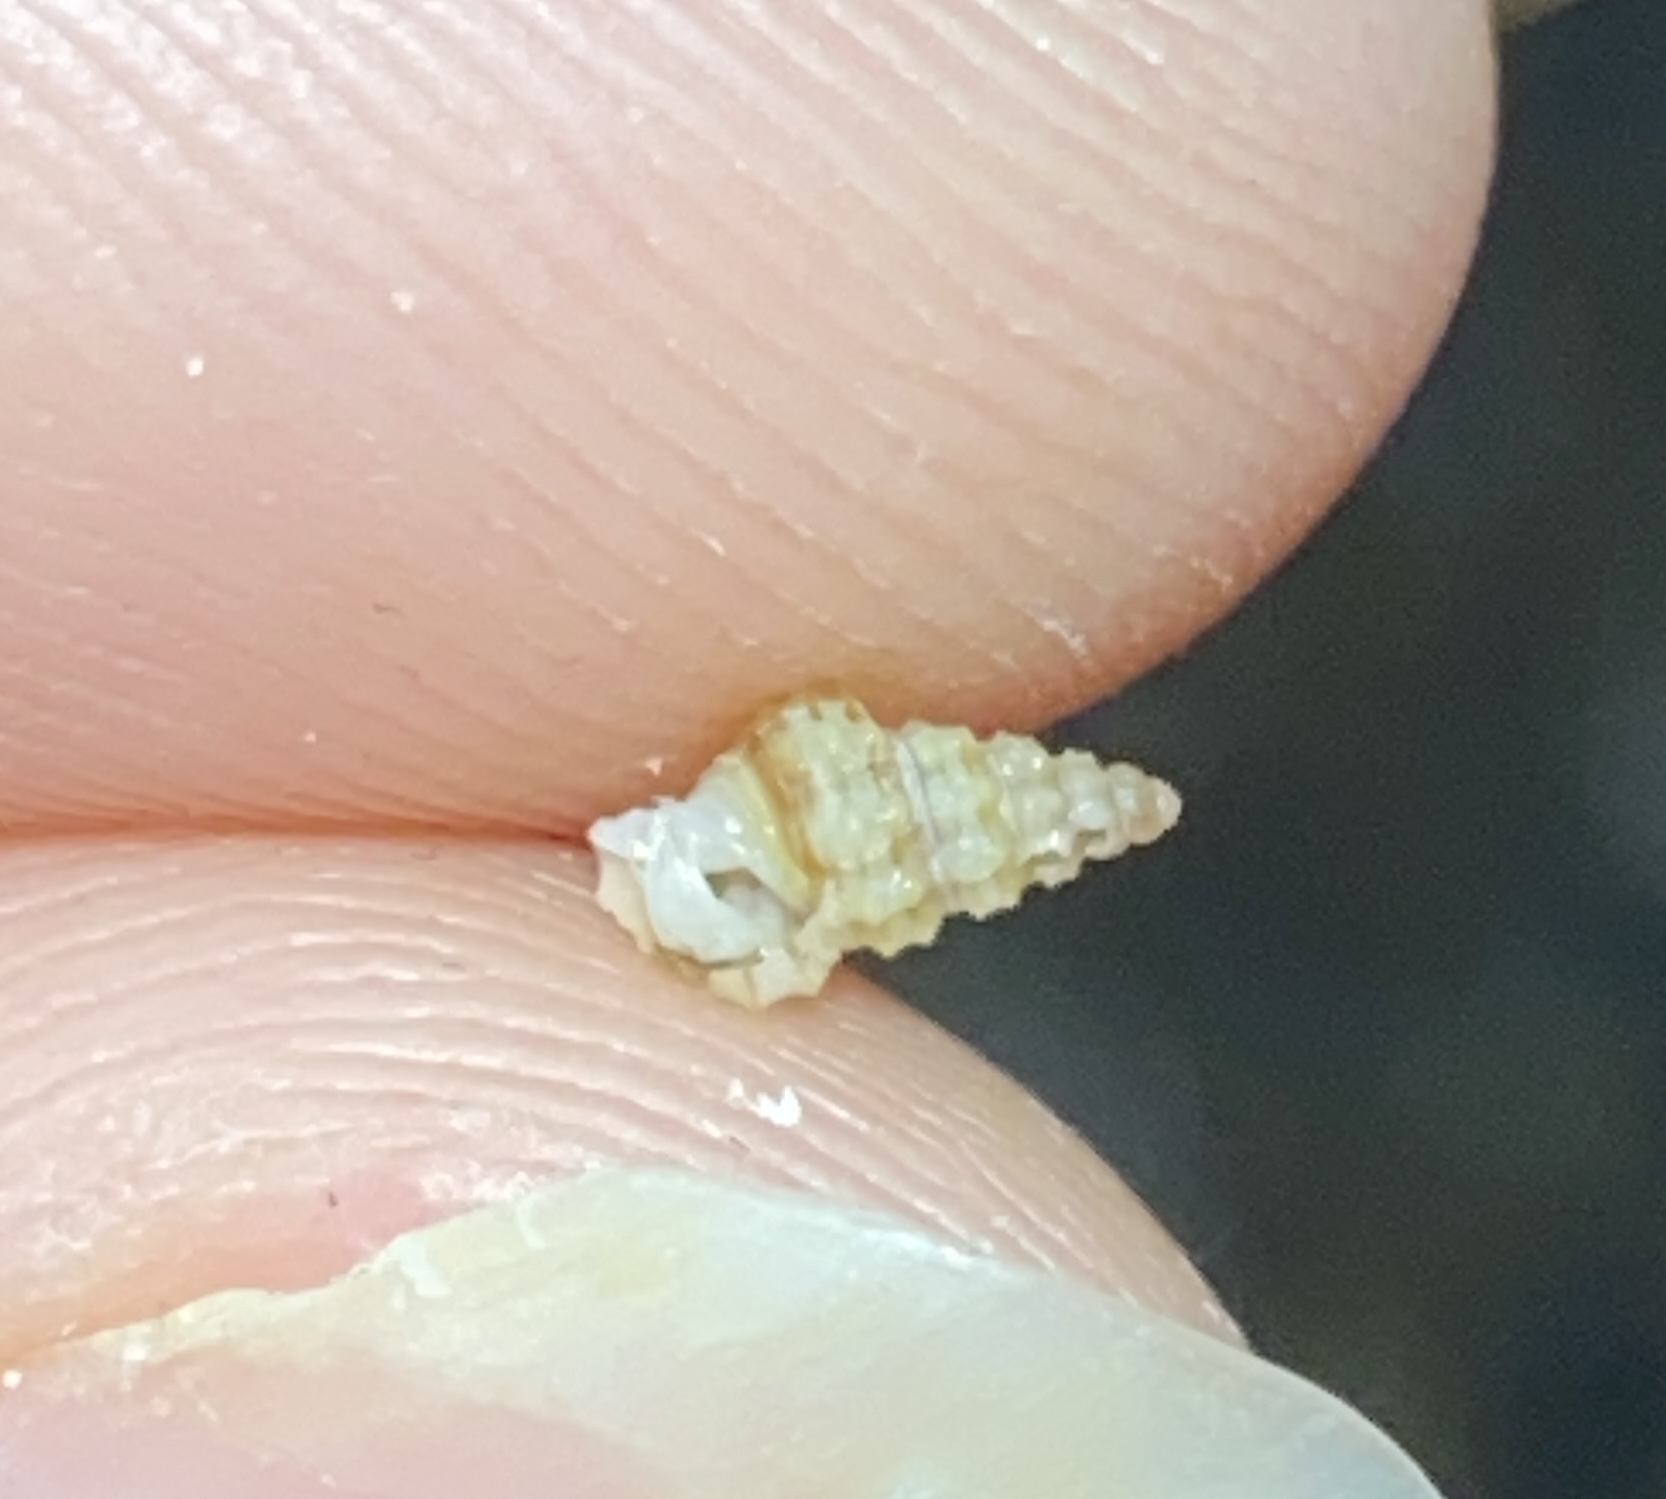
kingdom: Animalia
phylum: Arthropoda
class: Malacostraca
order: Decapoda
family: Paguridae
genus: Pagurus
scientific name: Pagurus longicarpus
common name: Long-armed hermit crab
